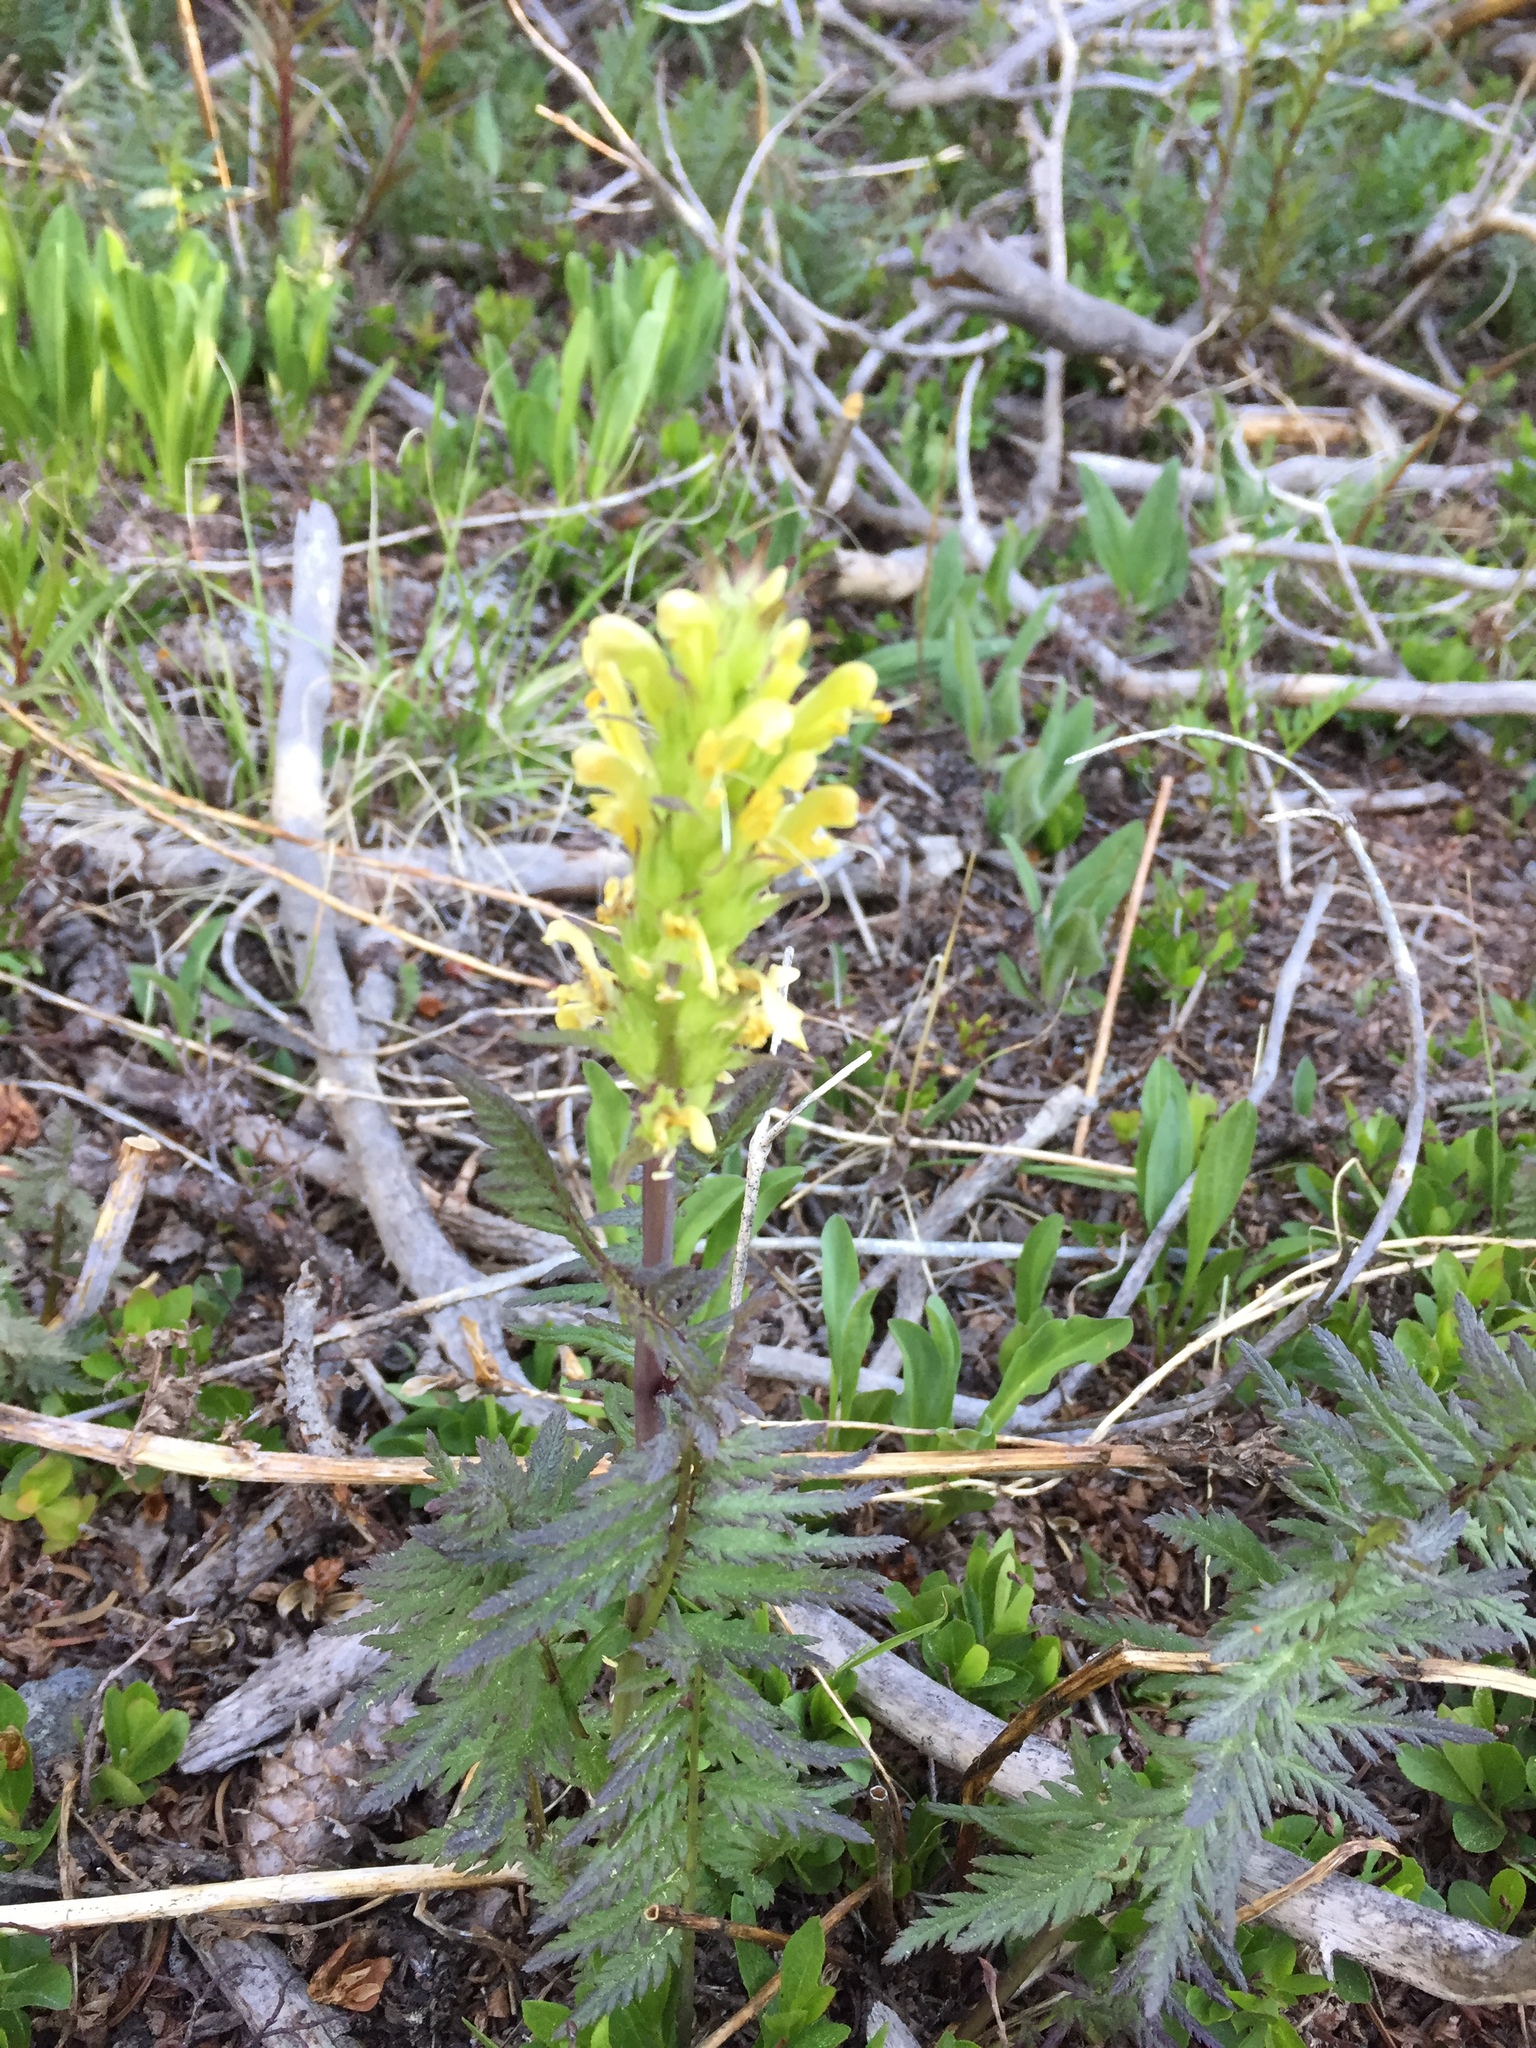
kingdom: Plantae
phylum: Tracheophyta
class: Magnoliopsida
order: Lamiales
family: Orobanchaceae
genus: Pedicularis
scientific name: Pedicularis bracteosa
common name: Bracted lousewort
